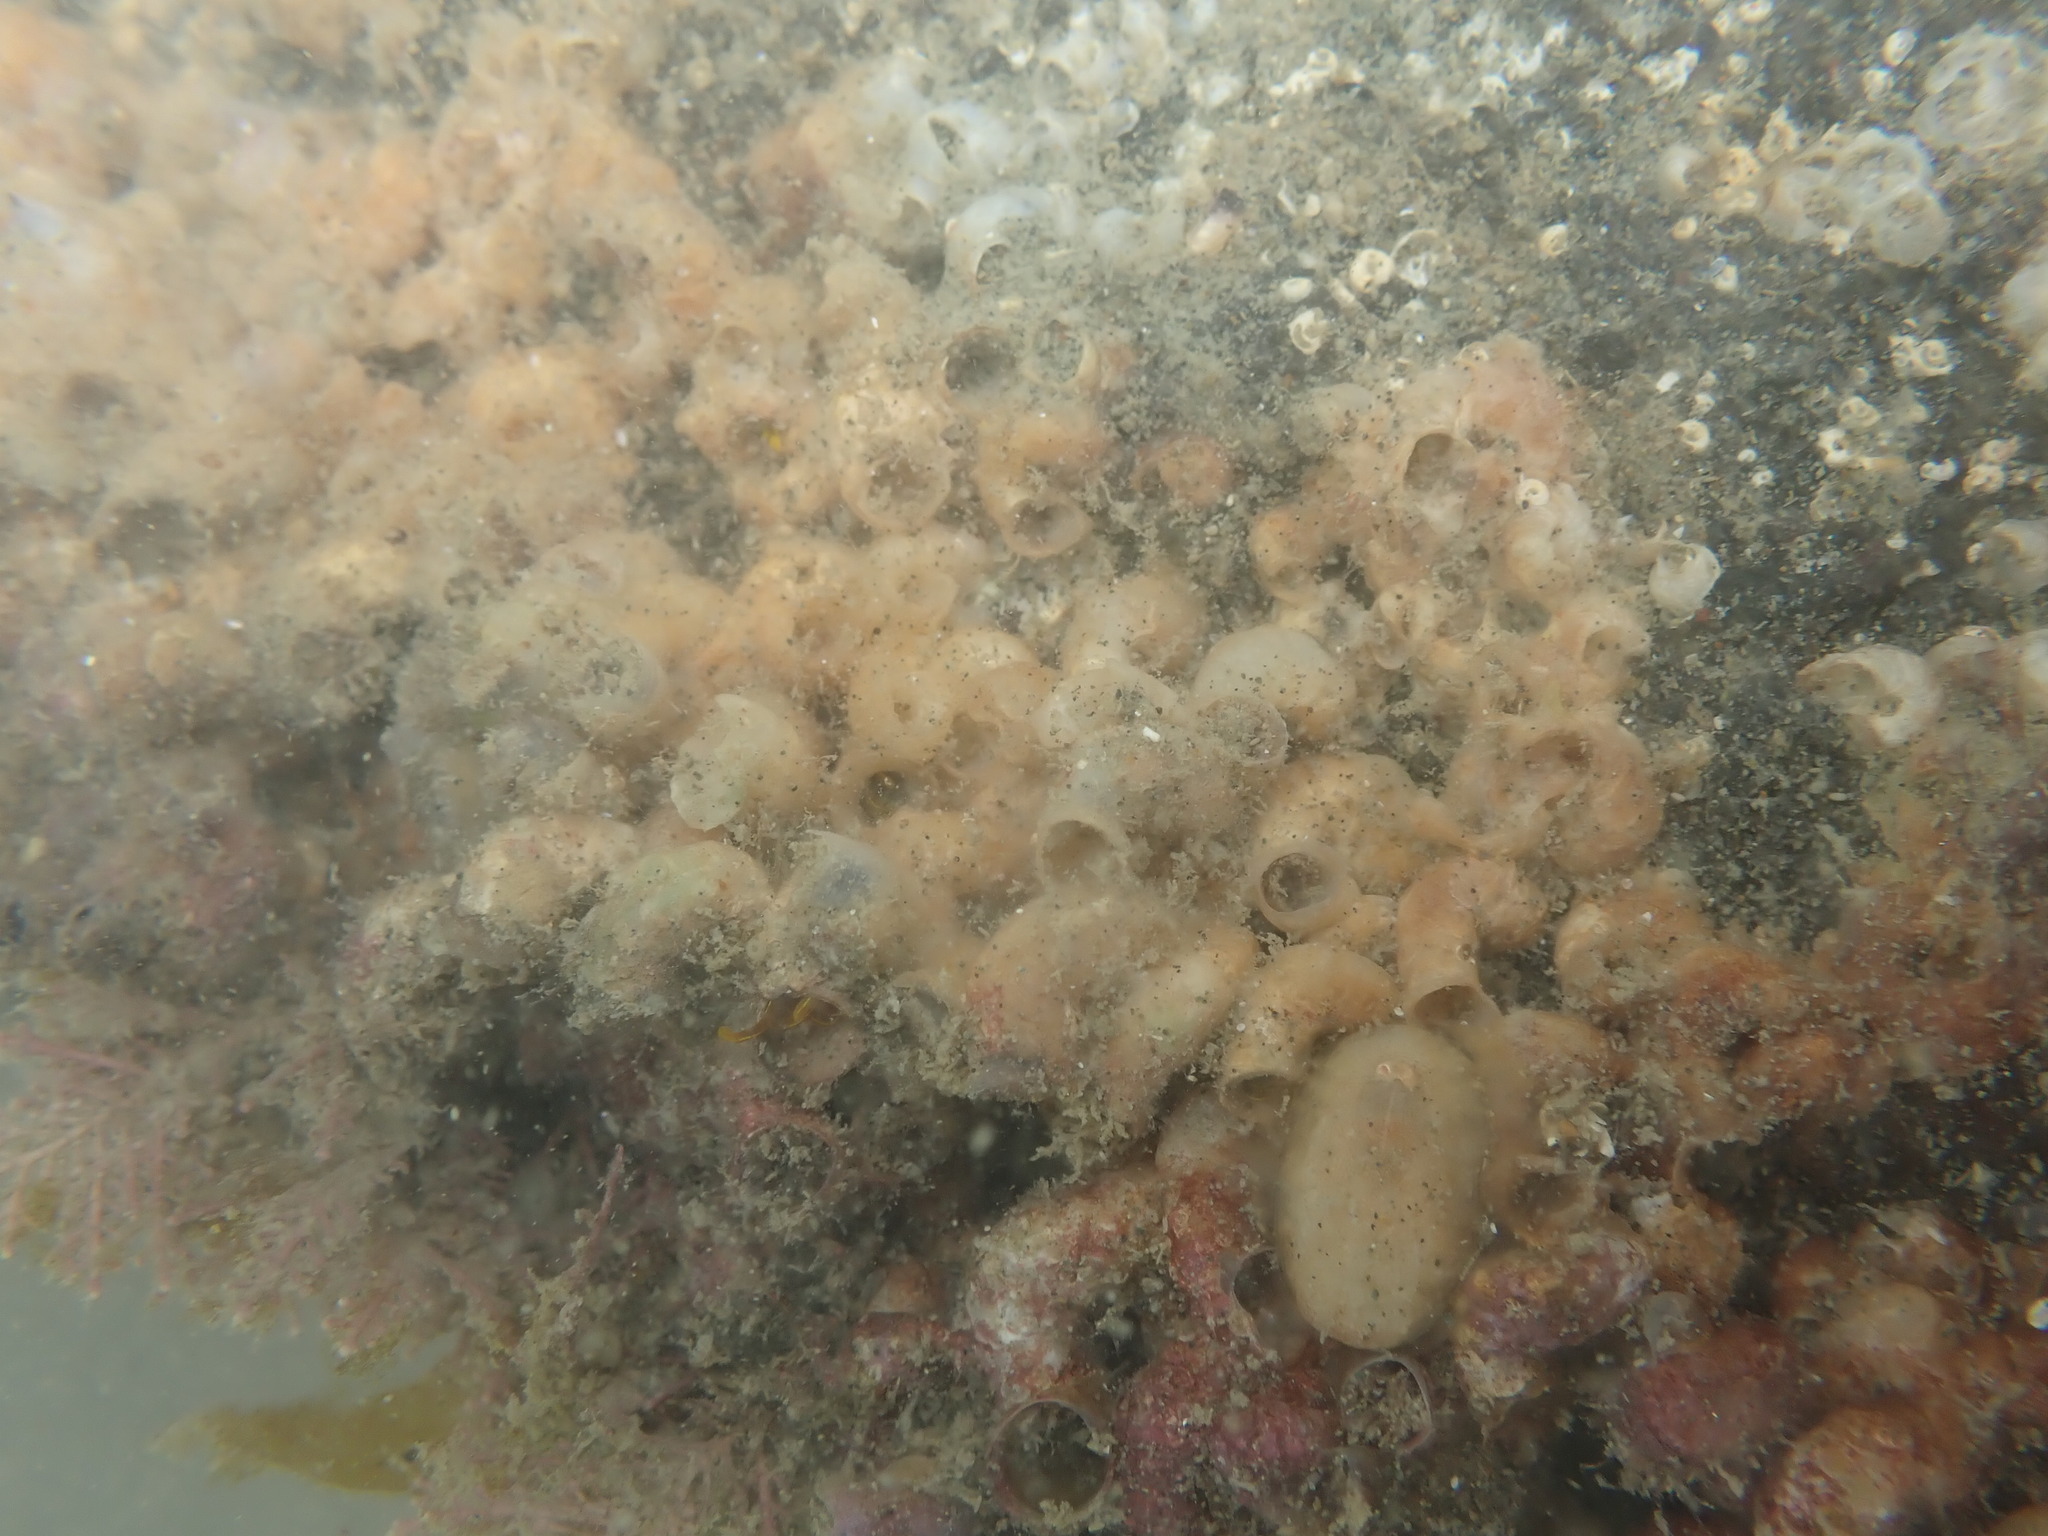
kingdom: Animalia
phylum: Mollusca
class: Gastropoda
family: Siliquariidae
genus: Stephopoma
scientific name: Stephopoma roseum
